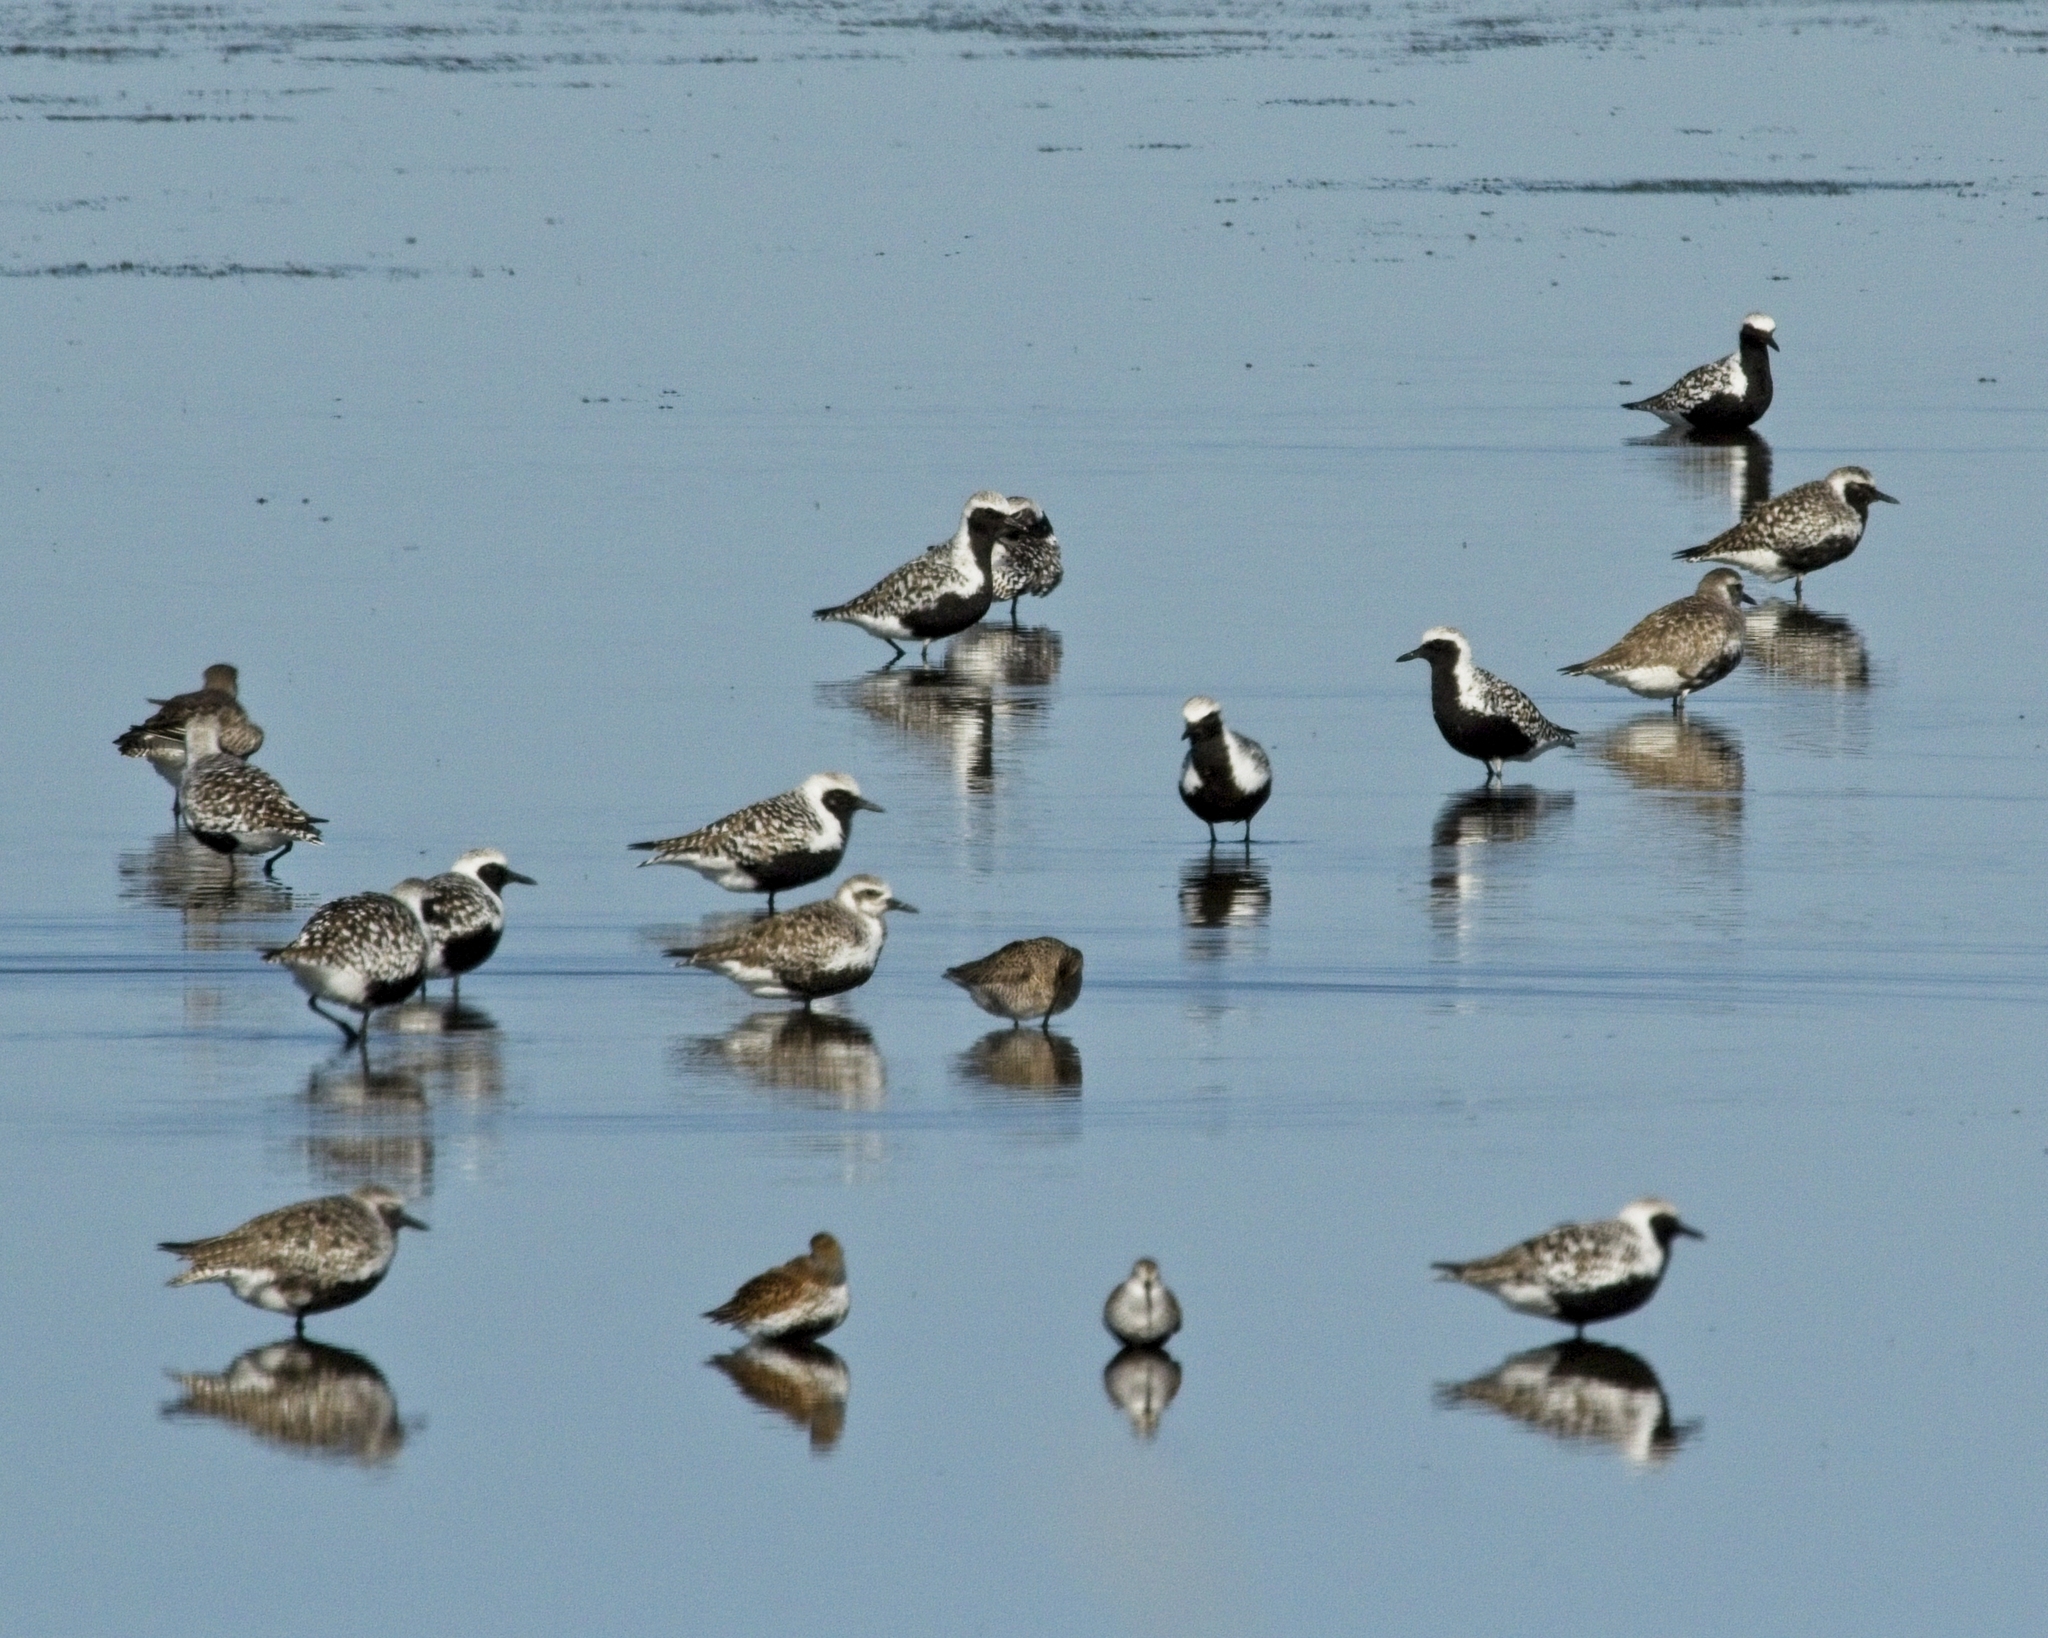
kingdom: Animalia
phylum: Chordata
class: Aves
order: Charadriiformes
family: Charadriidae
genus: Pluvialis
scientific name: Pluvialis squatarola
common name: Grey plover
